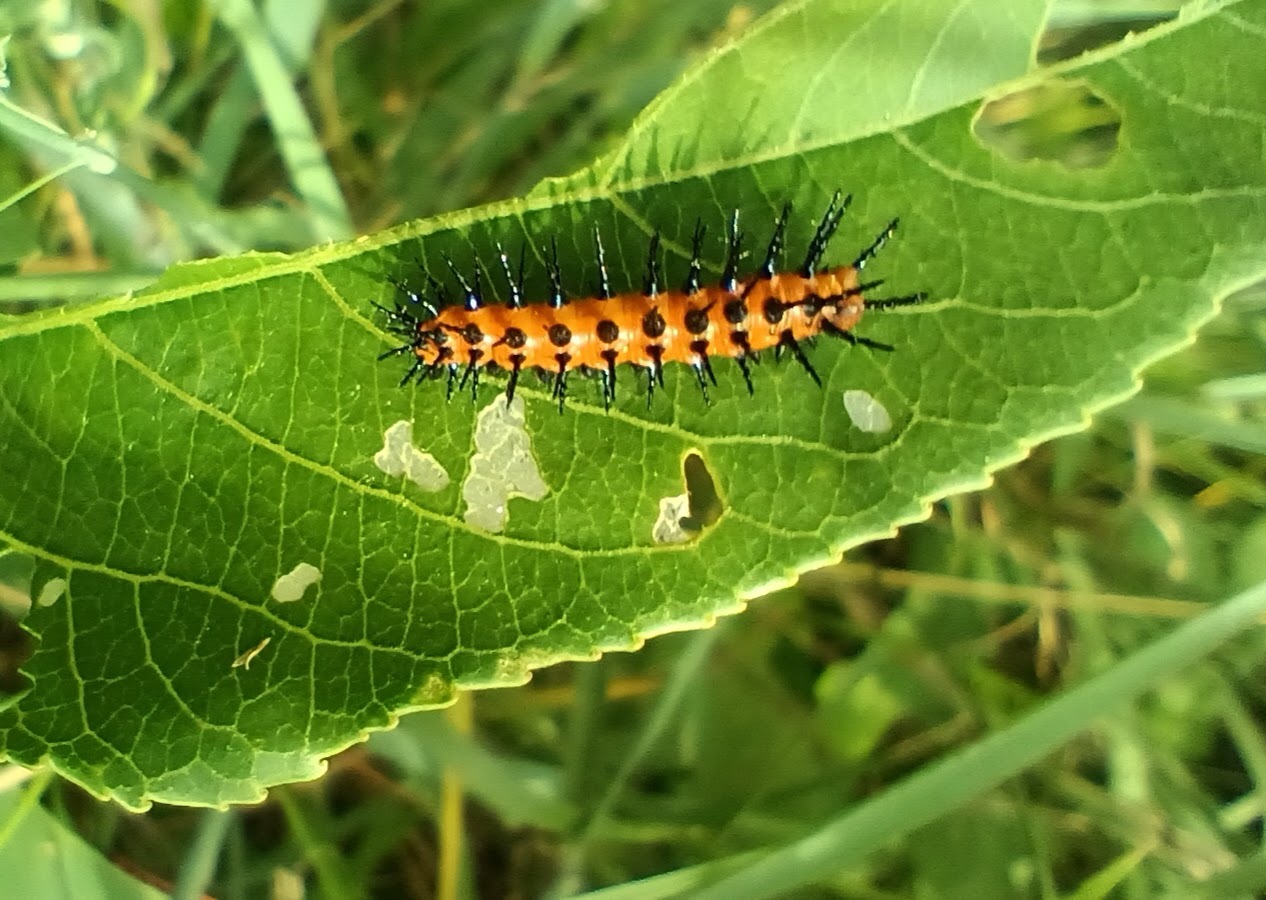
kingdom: Animalia
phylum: Arthropoda
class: Insecta
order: Lepidoptera
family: Nymphalidae
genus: Dione
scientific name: Dione vanillae
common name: Gulf fritillary
